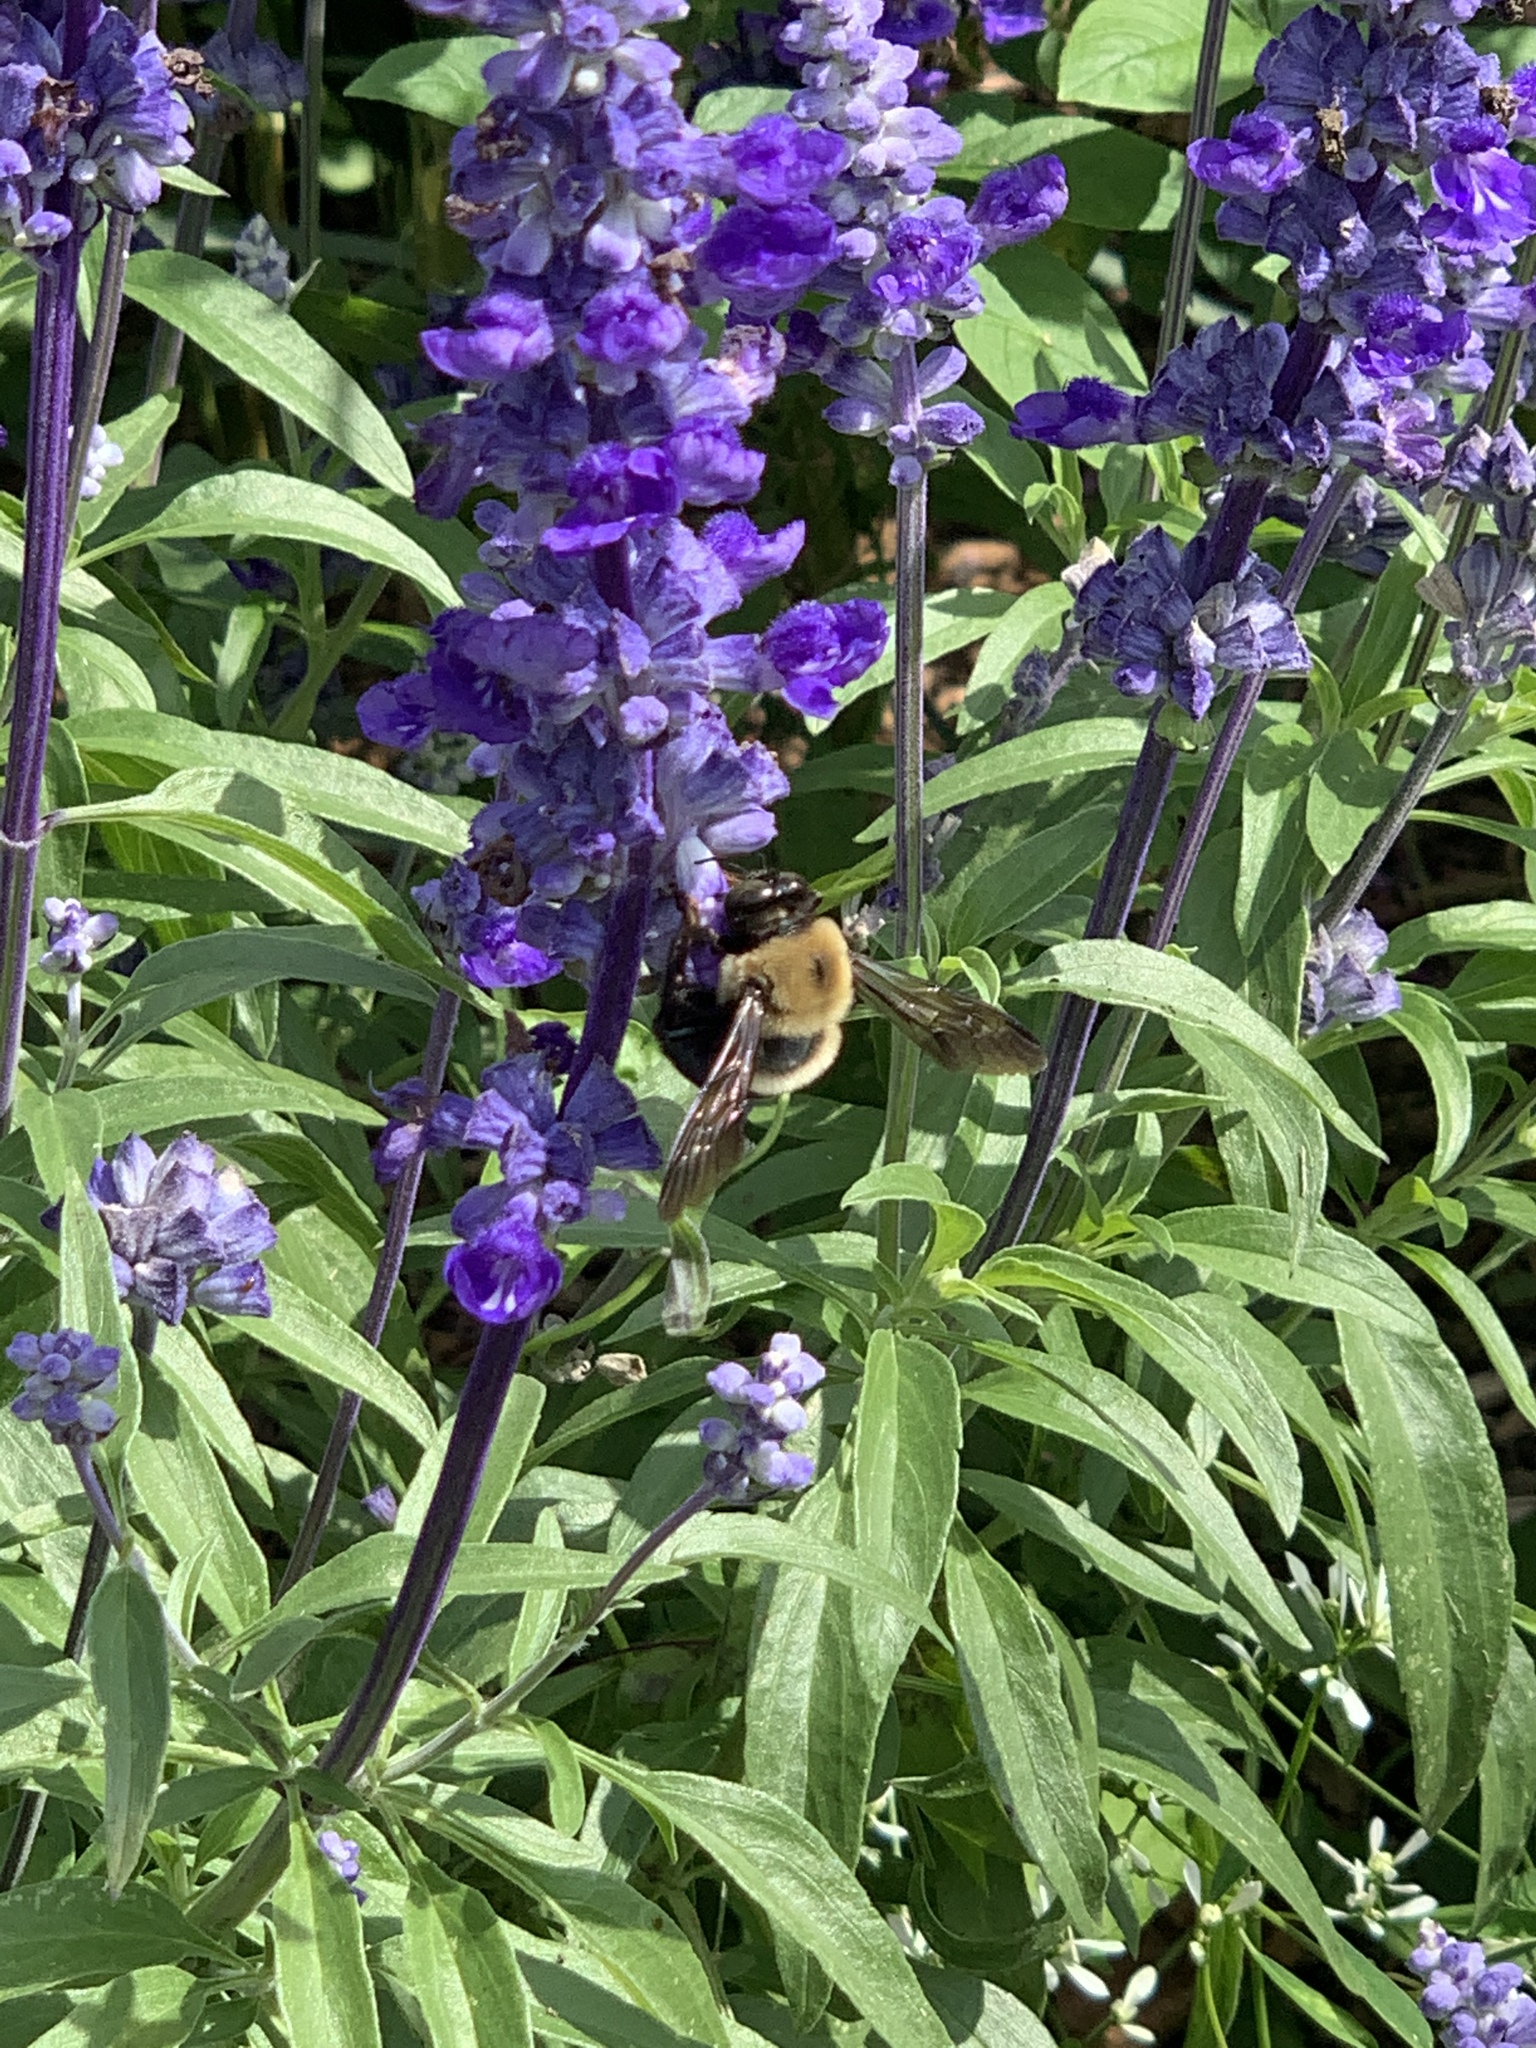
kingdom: Animalia
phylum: Arthropoda
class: Insecta
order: Hymenoptera
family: Apidae
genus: Xylocopa
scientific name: Xylocopa virginica
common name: Carpenter bee
